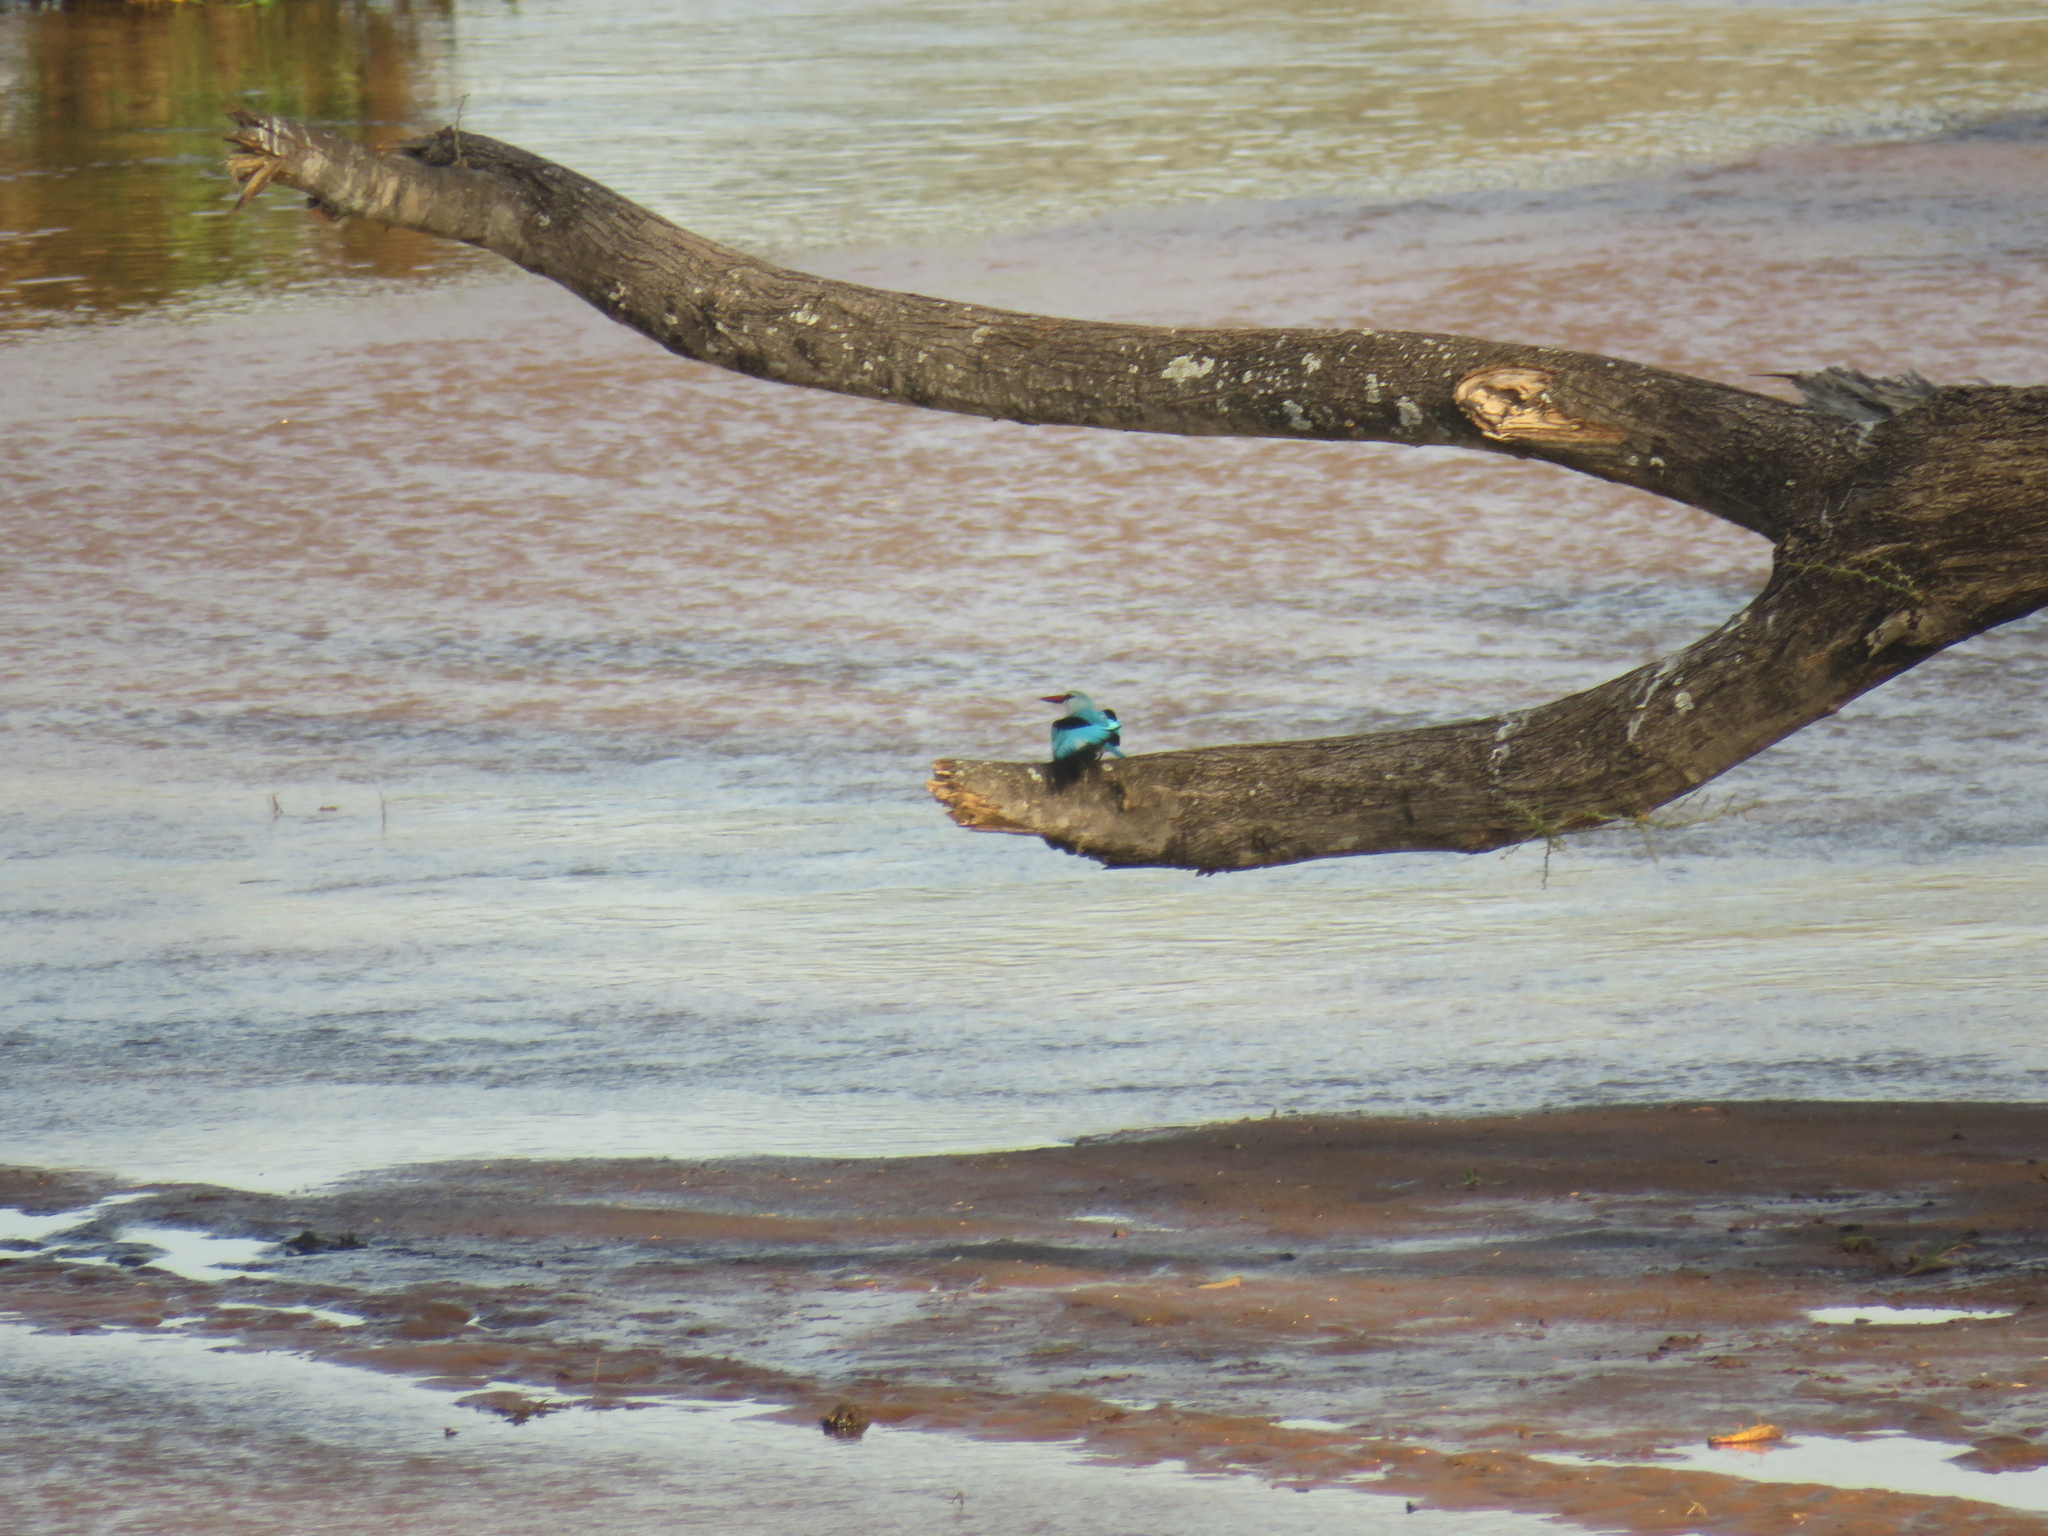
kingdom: Animalia
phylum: Chordata
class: Aves
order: Coraciiformes
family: Alcedinidae
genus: Halcyon
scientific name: Halcyon senegalensis
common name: Woodland kingfisher
